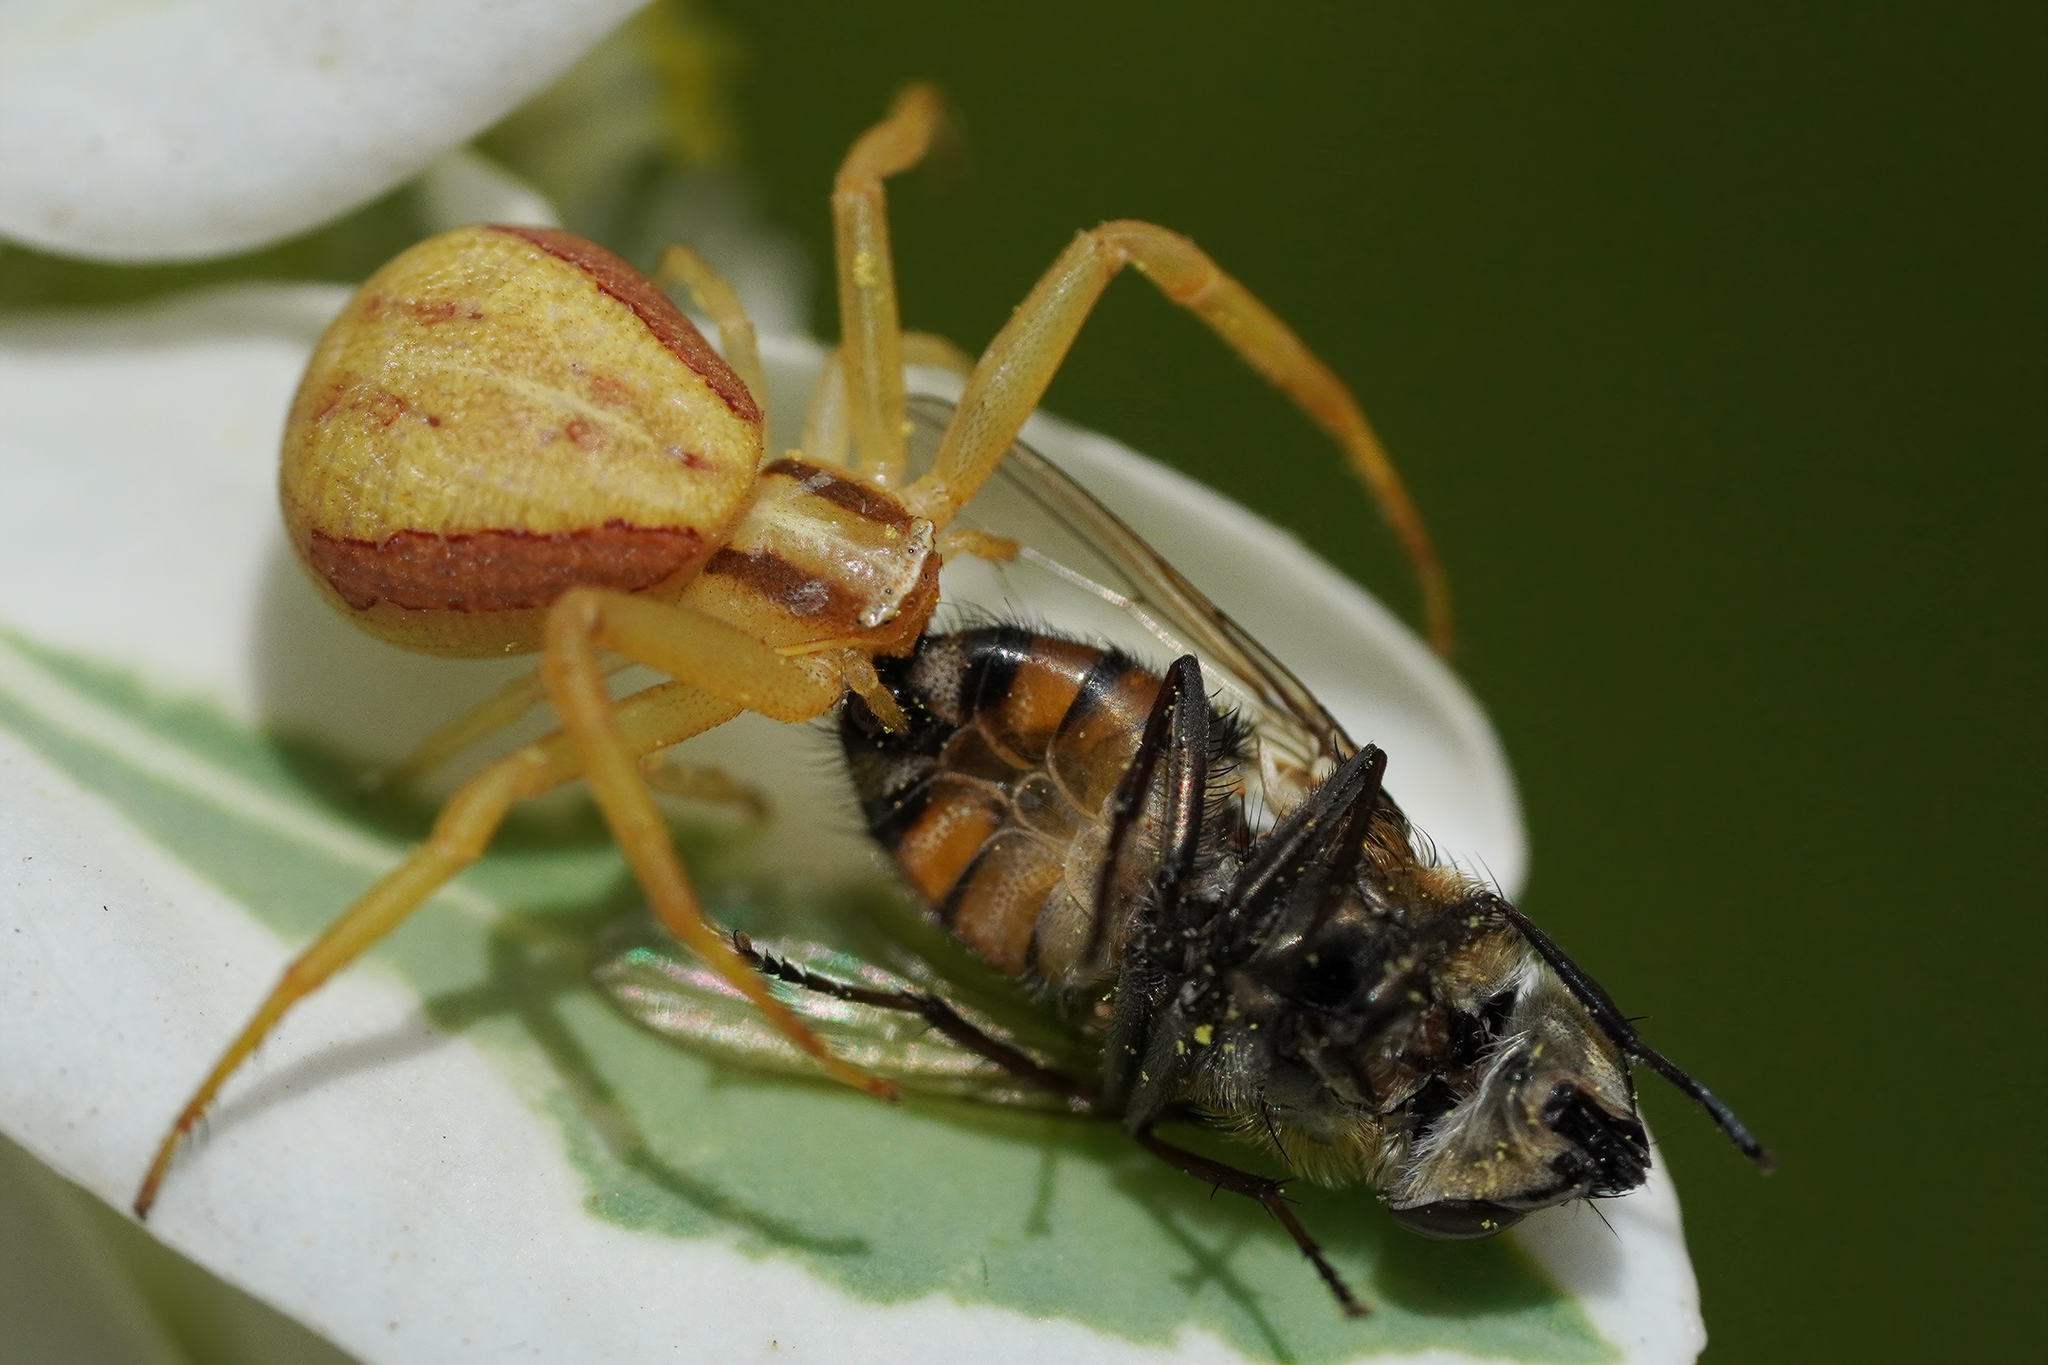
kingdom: Animalia
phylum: Arthropoda
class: Arachnida
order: Araneae
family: Thomisidae
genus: Runcinia
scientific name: Runcinia grammica
